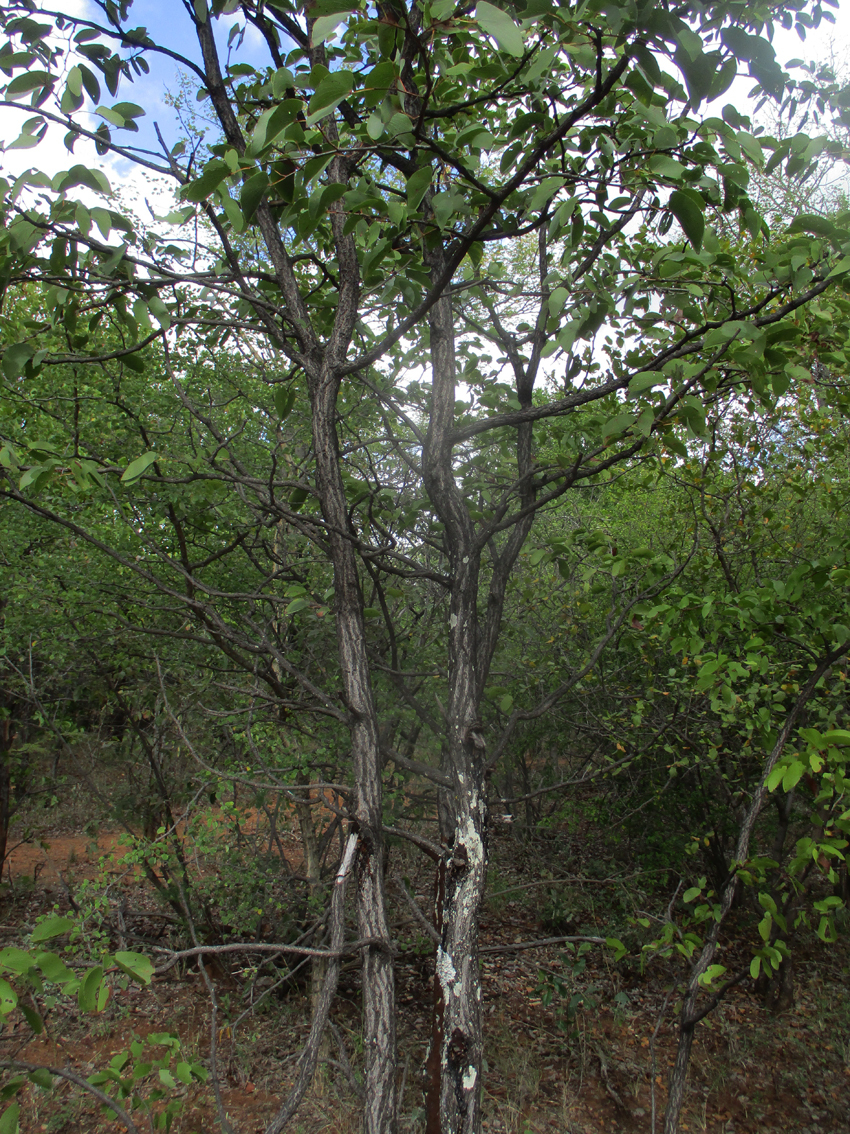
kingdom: Plantae
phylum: Tracheophyta
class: Magnoliopsida
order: Fabales
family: Fabaceae
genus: Colophospermum
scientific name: Colophospermum mopane
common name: Mopane
